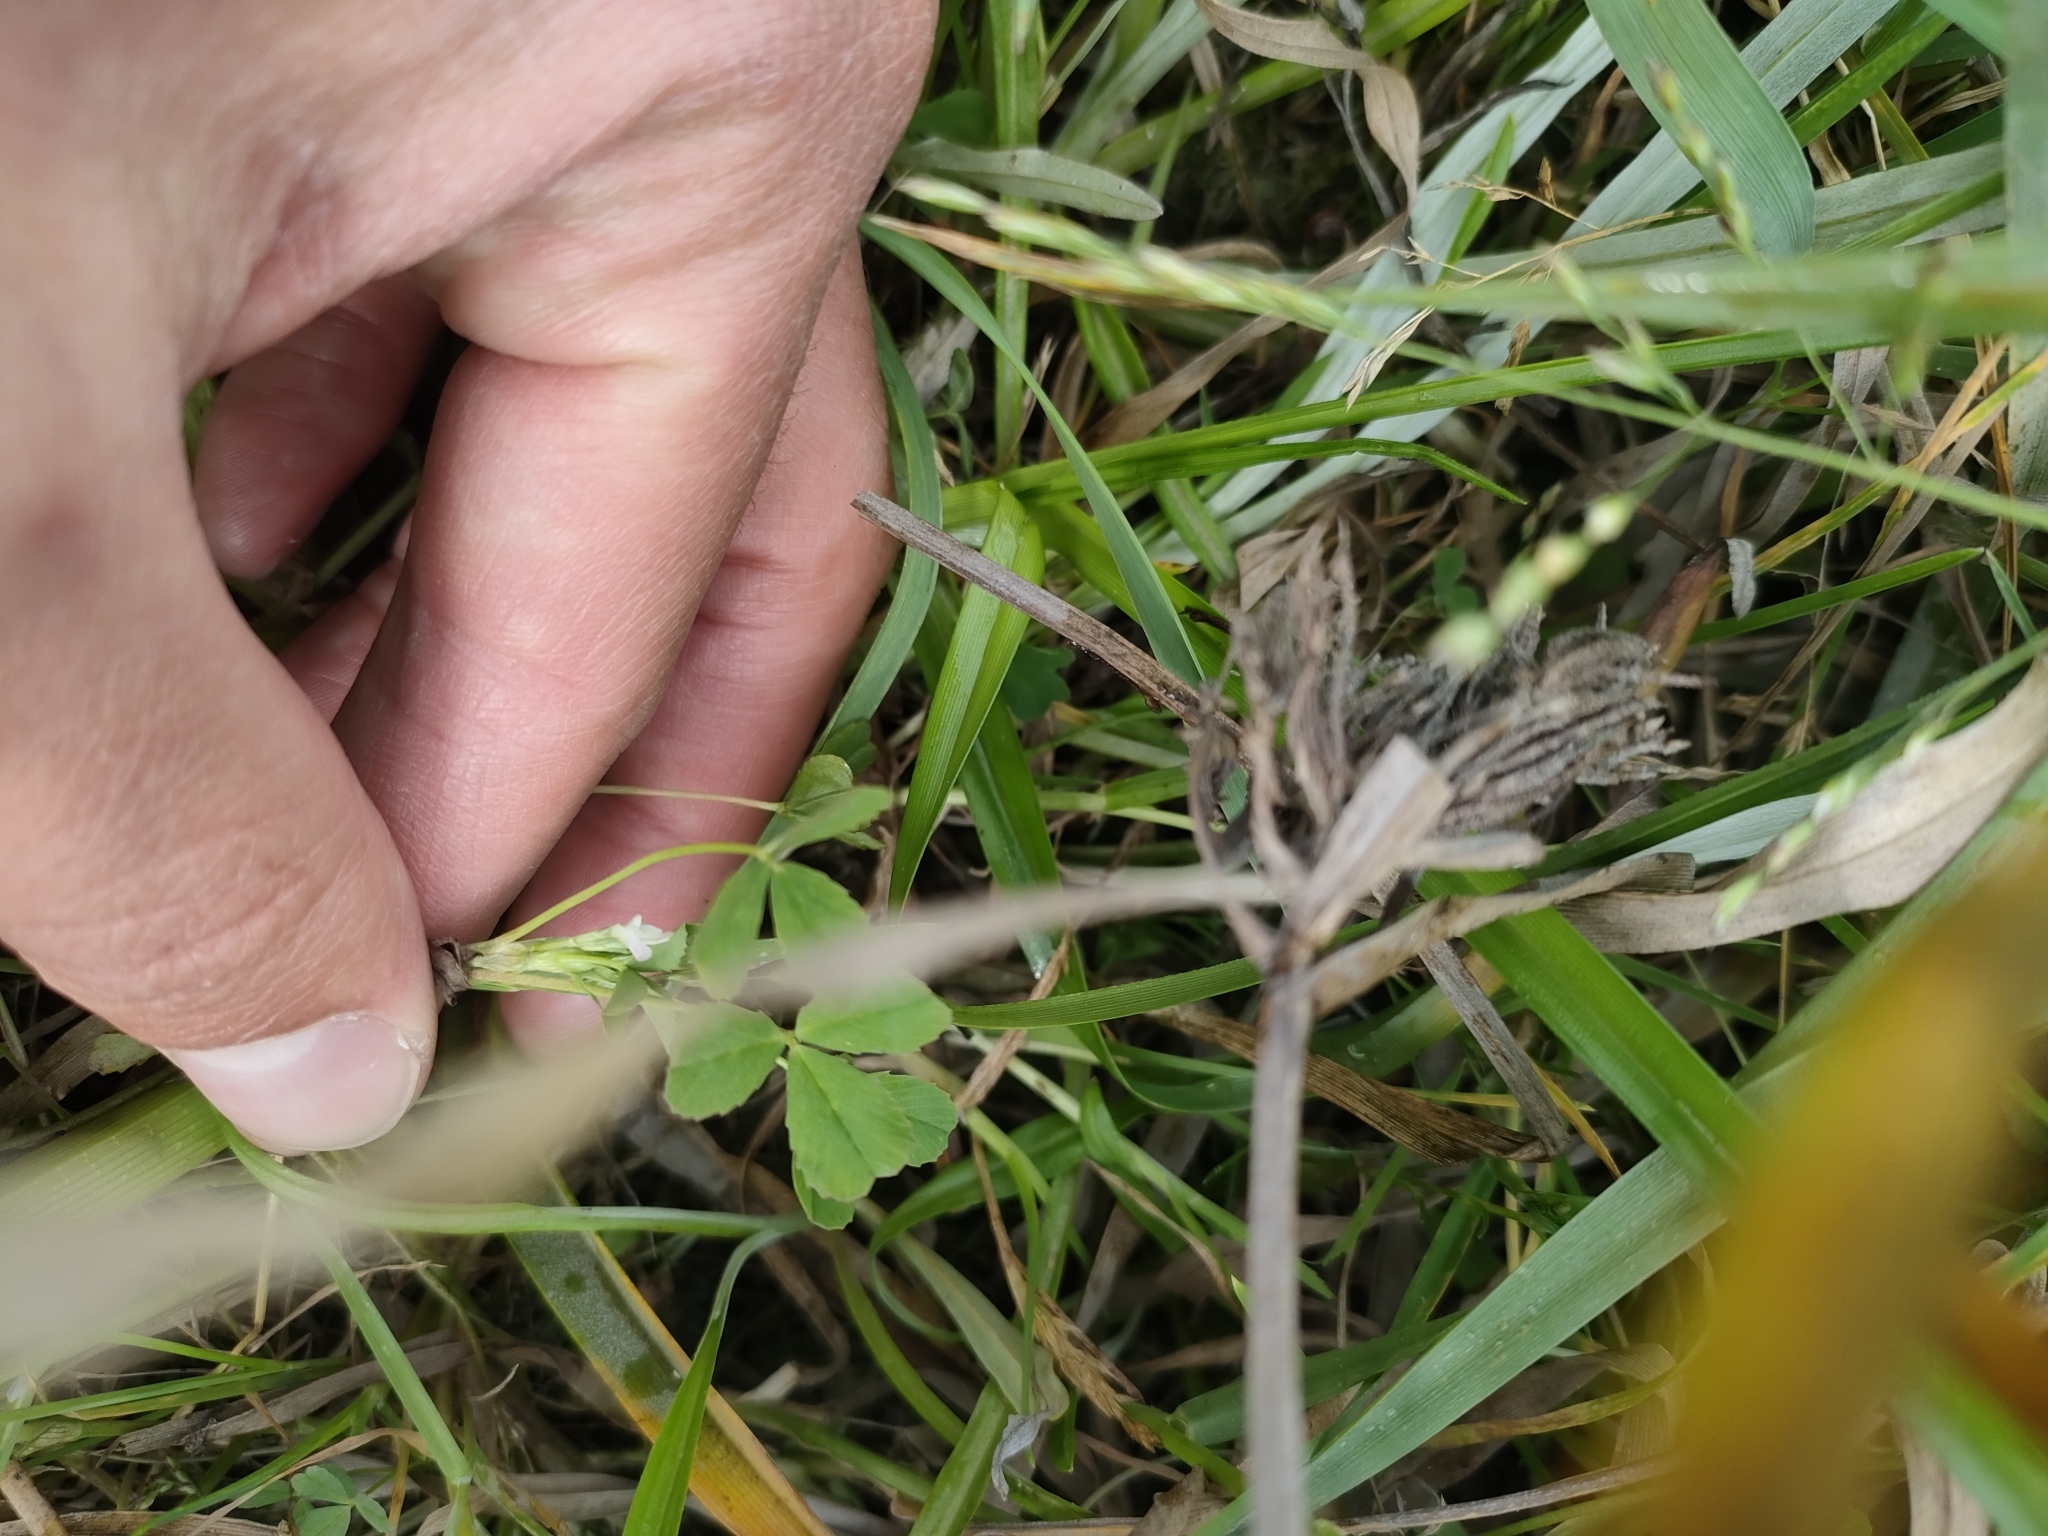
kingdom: Plantae
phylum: Tracheophyta
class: Magnoliopsida
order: Fabales
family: Fabaceae
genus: Trifolium
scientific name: Trifolium ornithopodioides
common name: Bird's-foot clover
